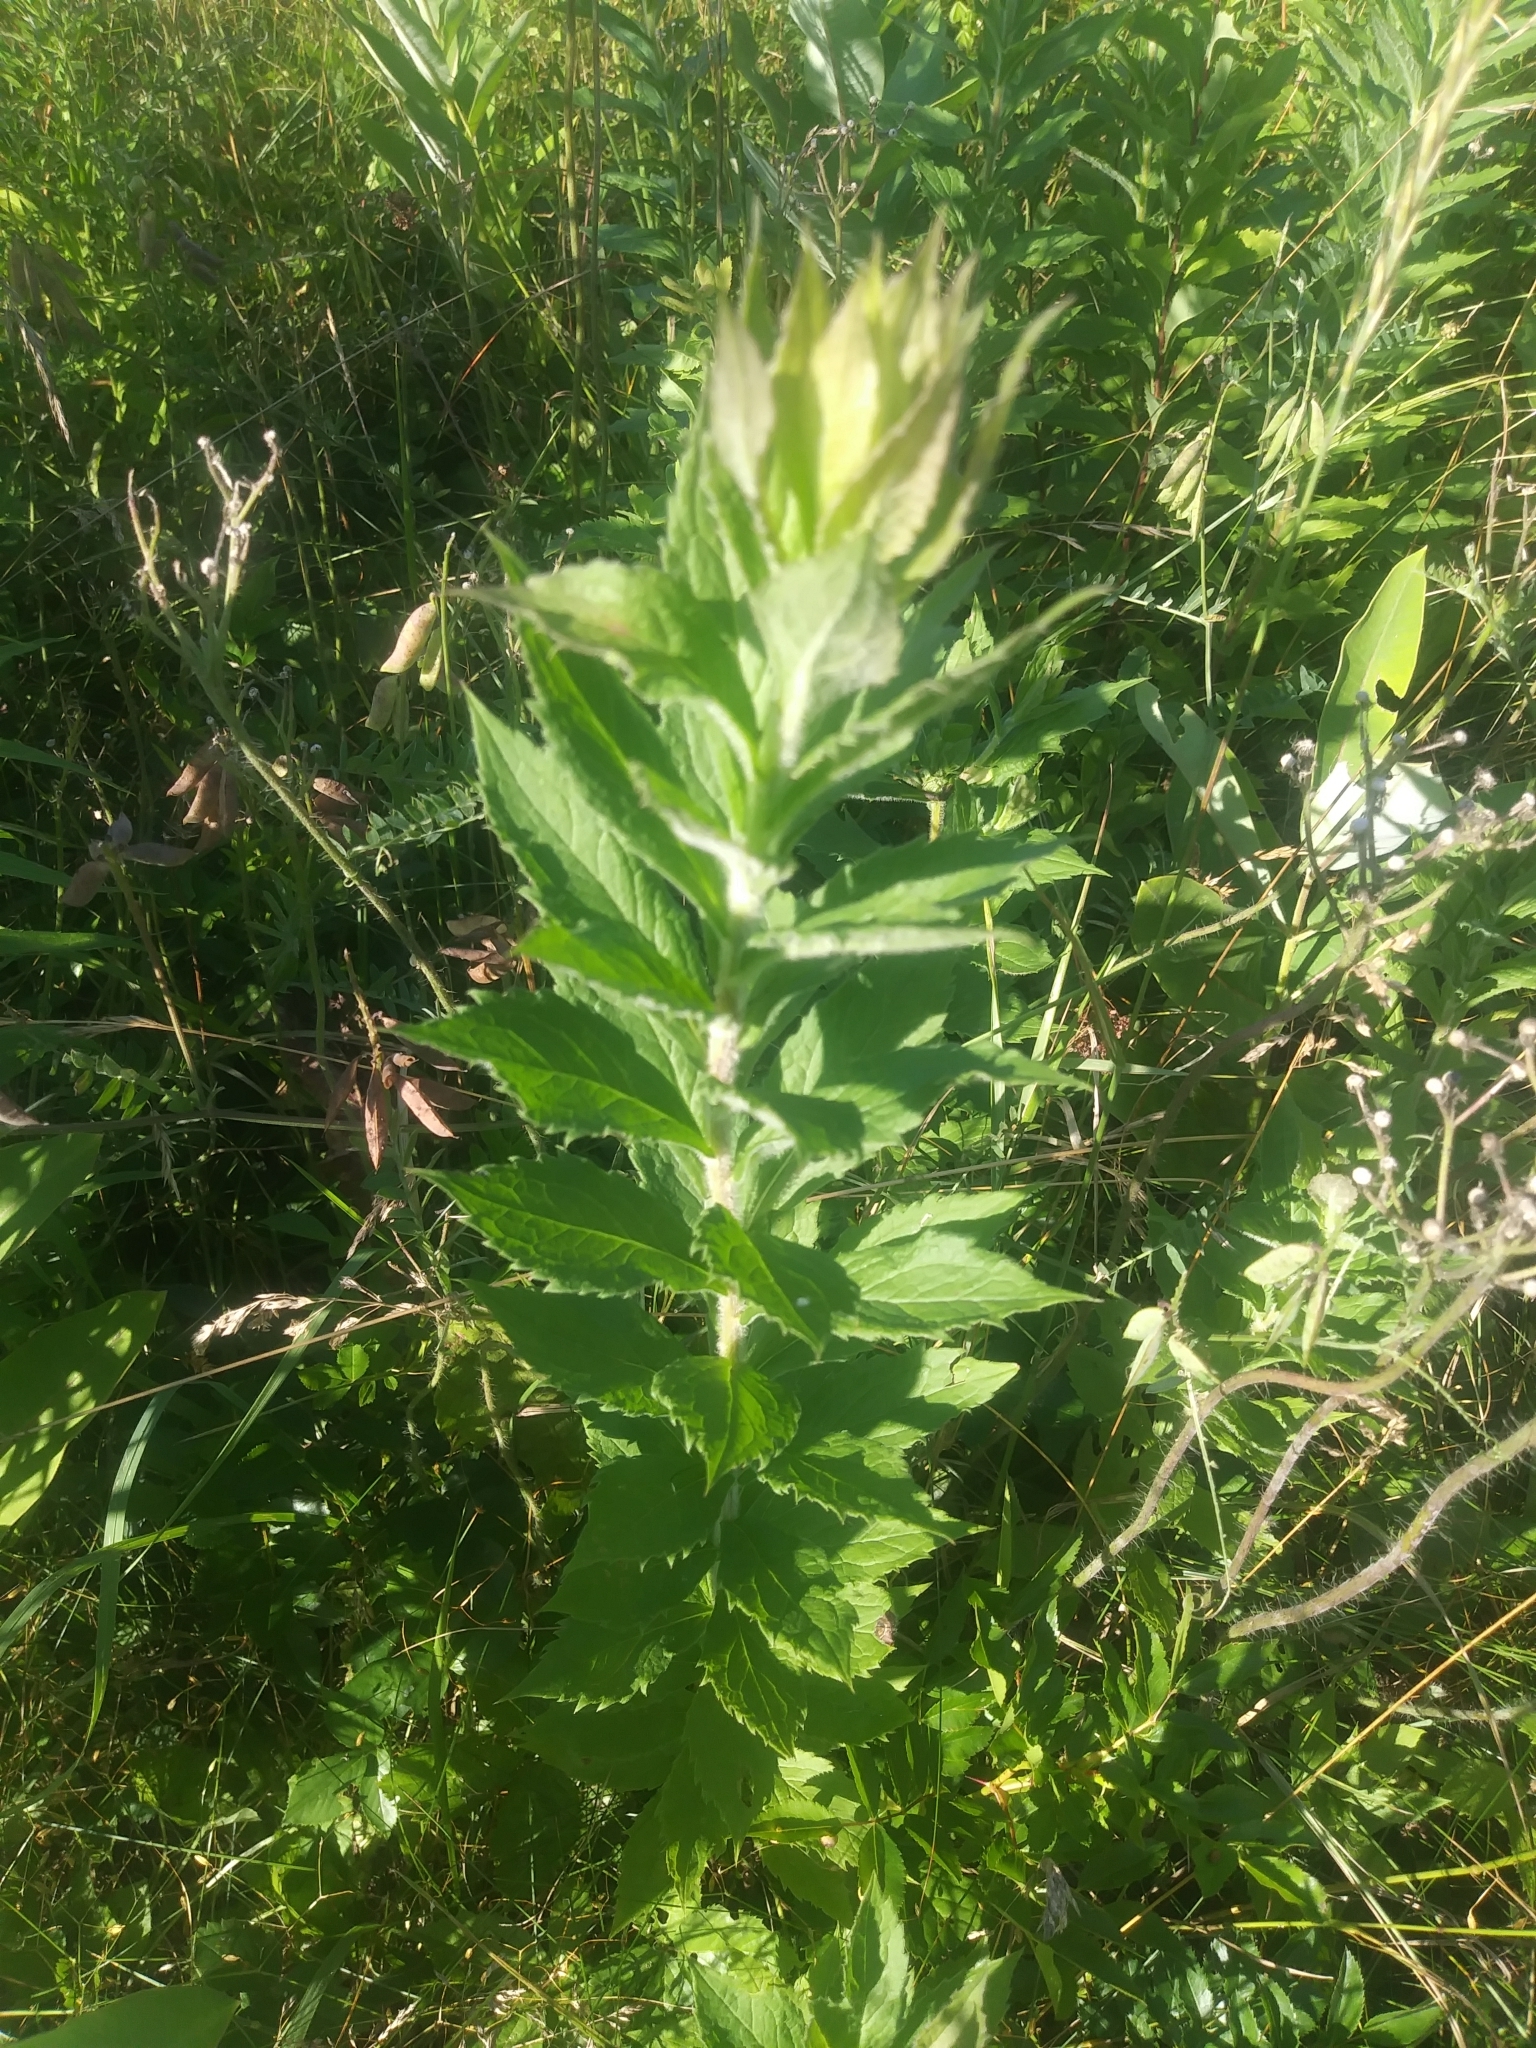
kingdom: Plantae
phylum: Tracheophyta
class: Magnoliopsida
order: Asterales
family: Asteraceae
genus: Solidago
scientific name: Solidago rugosa
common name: Rough-stemmed goldenrod
